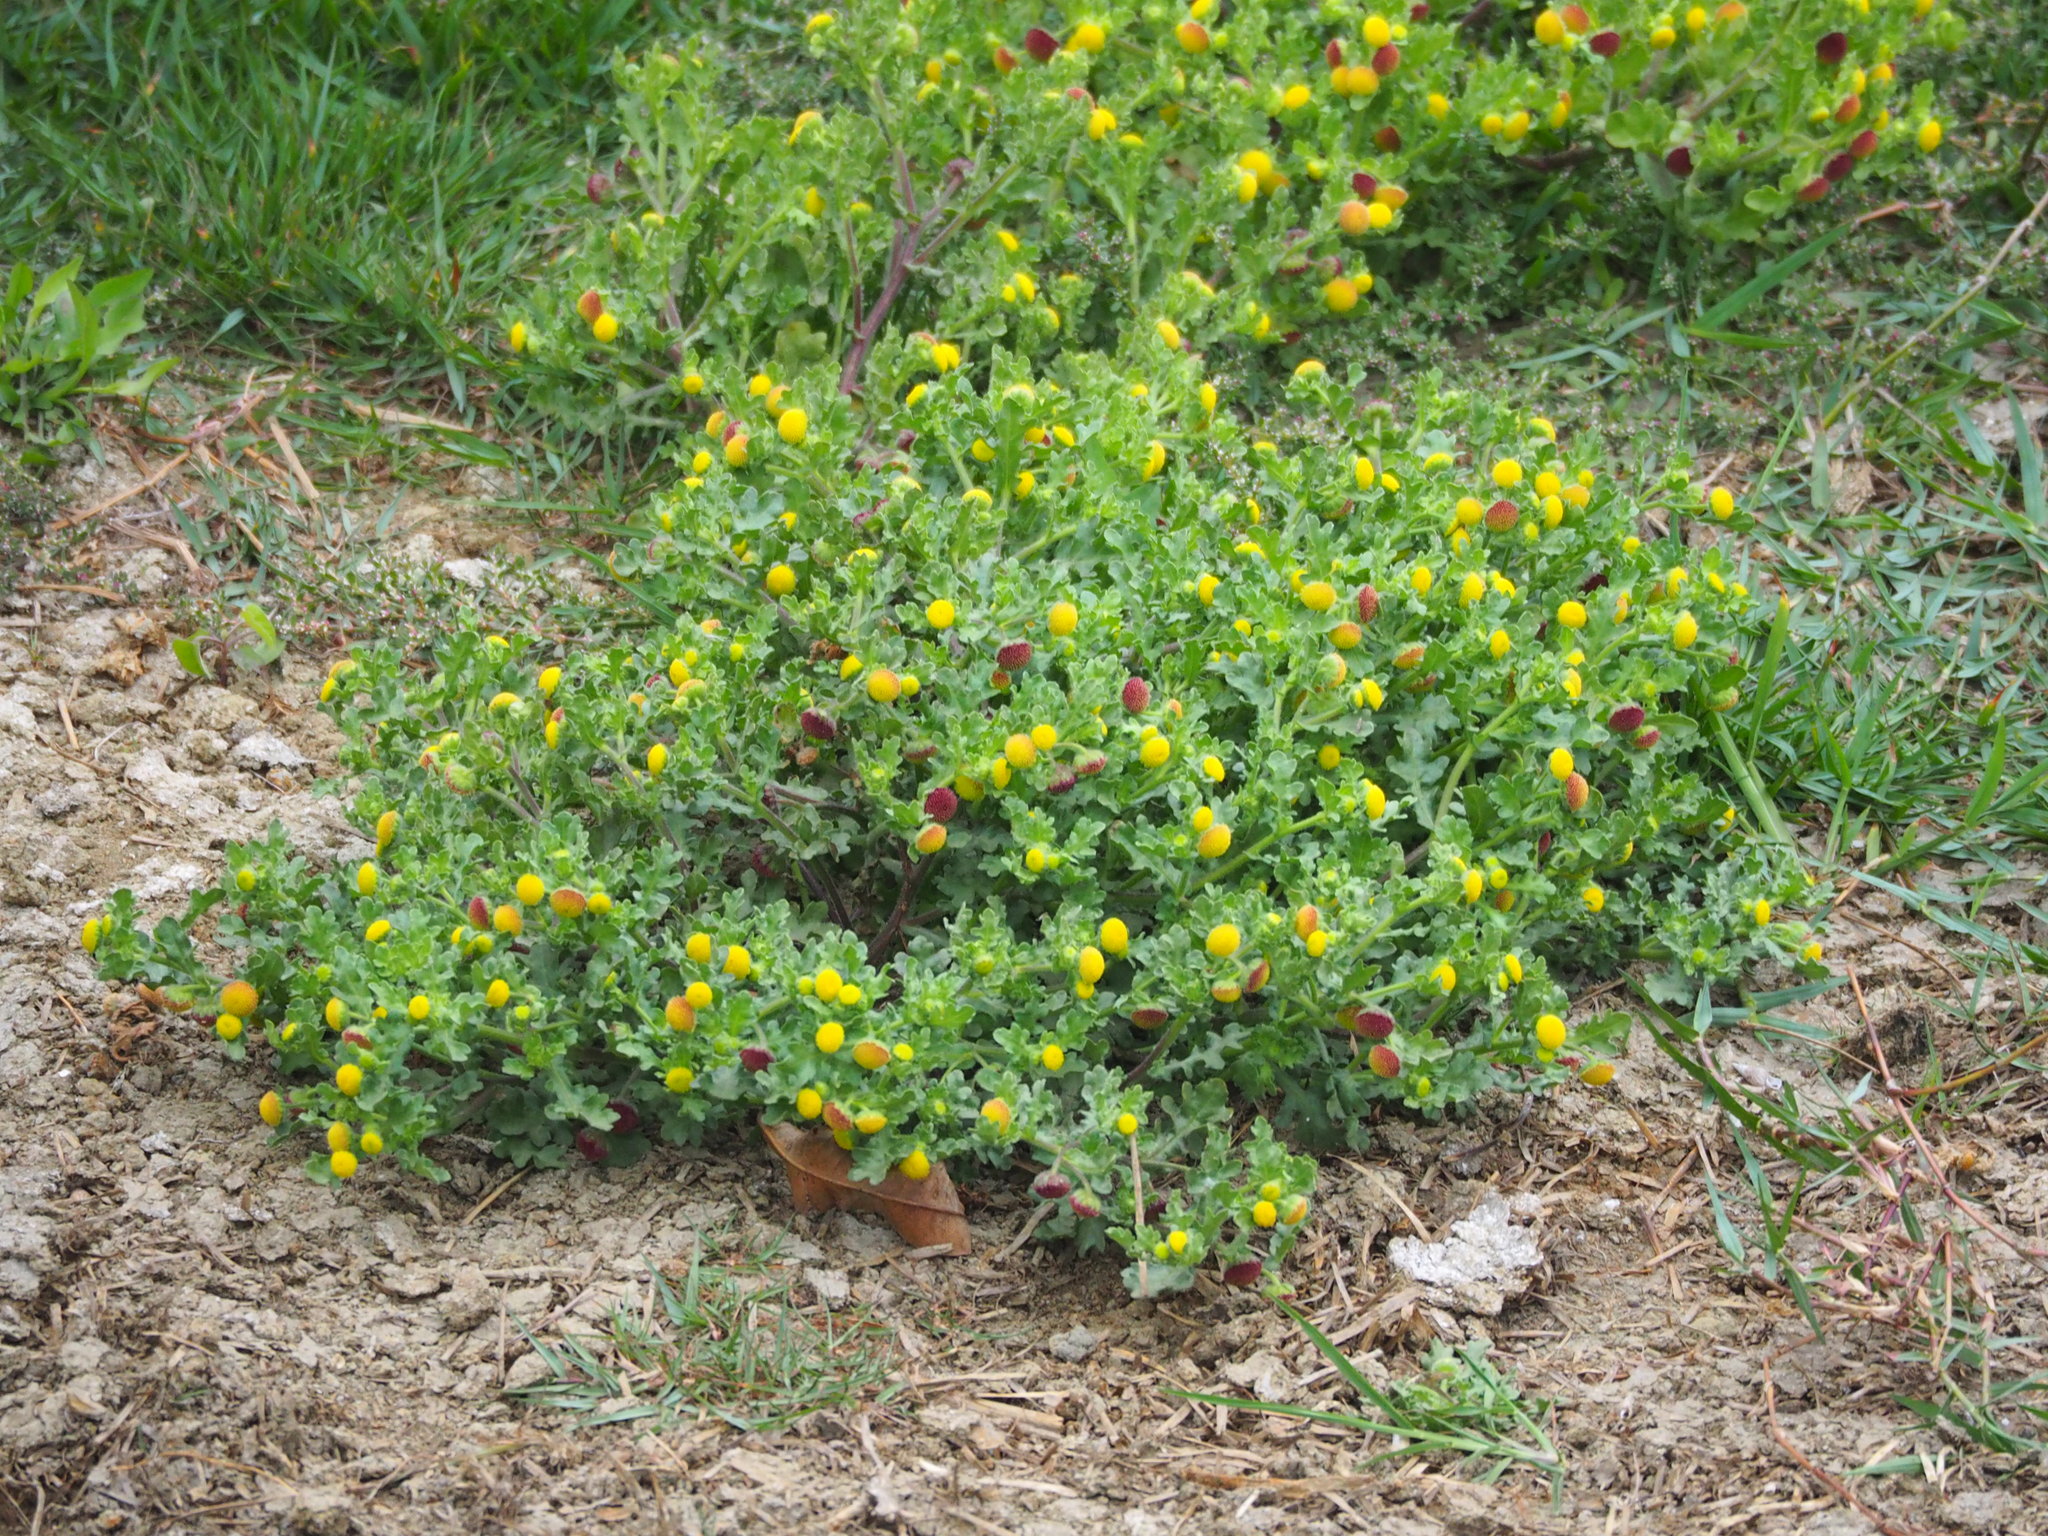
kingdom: Plantae
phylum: Tracheophyta
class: Magnoliopsida
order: Asterales
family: Asteraceae
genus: Grangea
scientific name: Grangea maderaspatana
